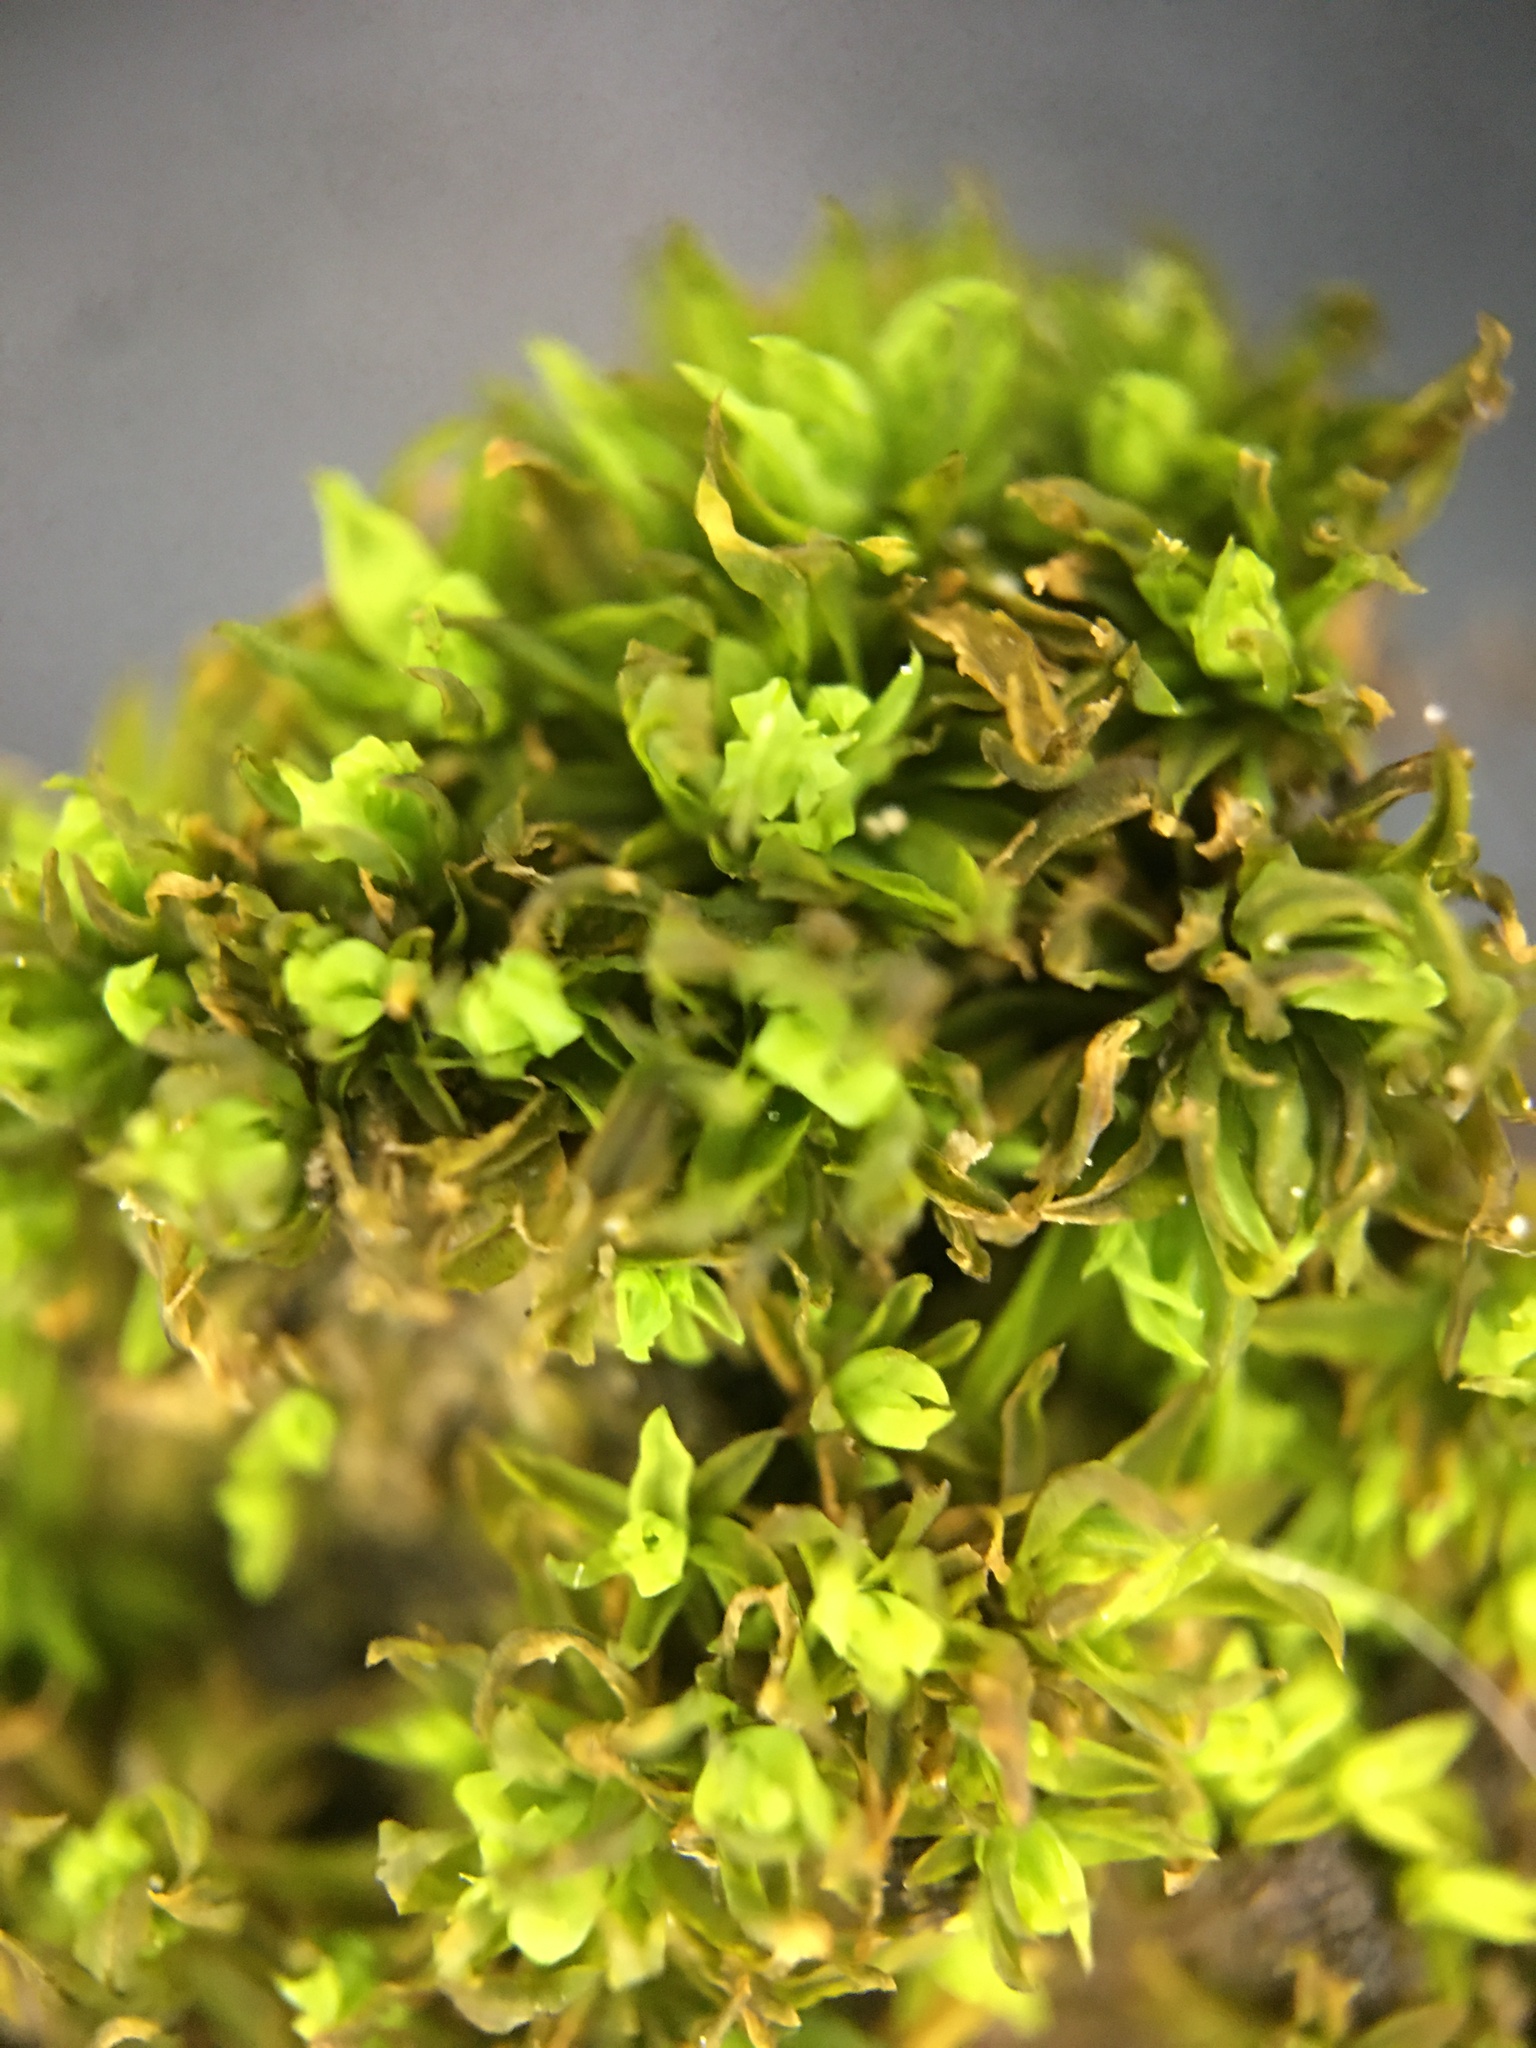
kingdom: Plantae
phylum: Bryophyta
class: Bryopsida
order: Pottiales
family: Pottiaceae
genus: Barbula
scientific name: Barbula unguiculata
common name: Prickly beard moss
